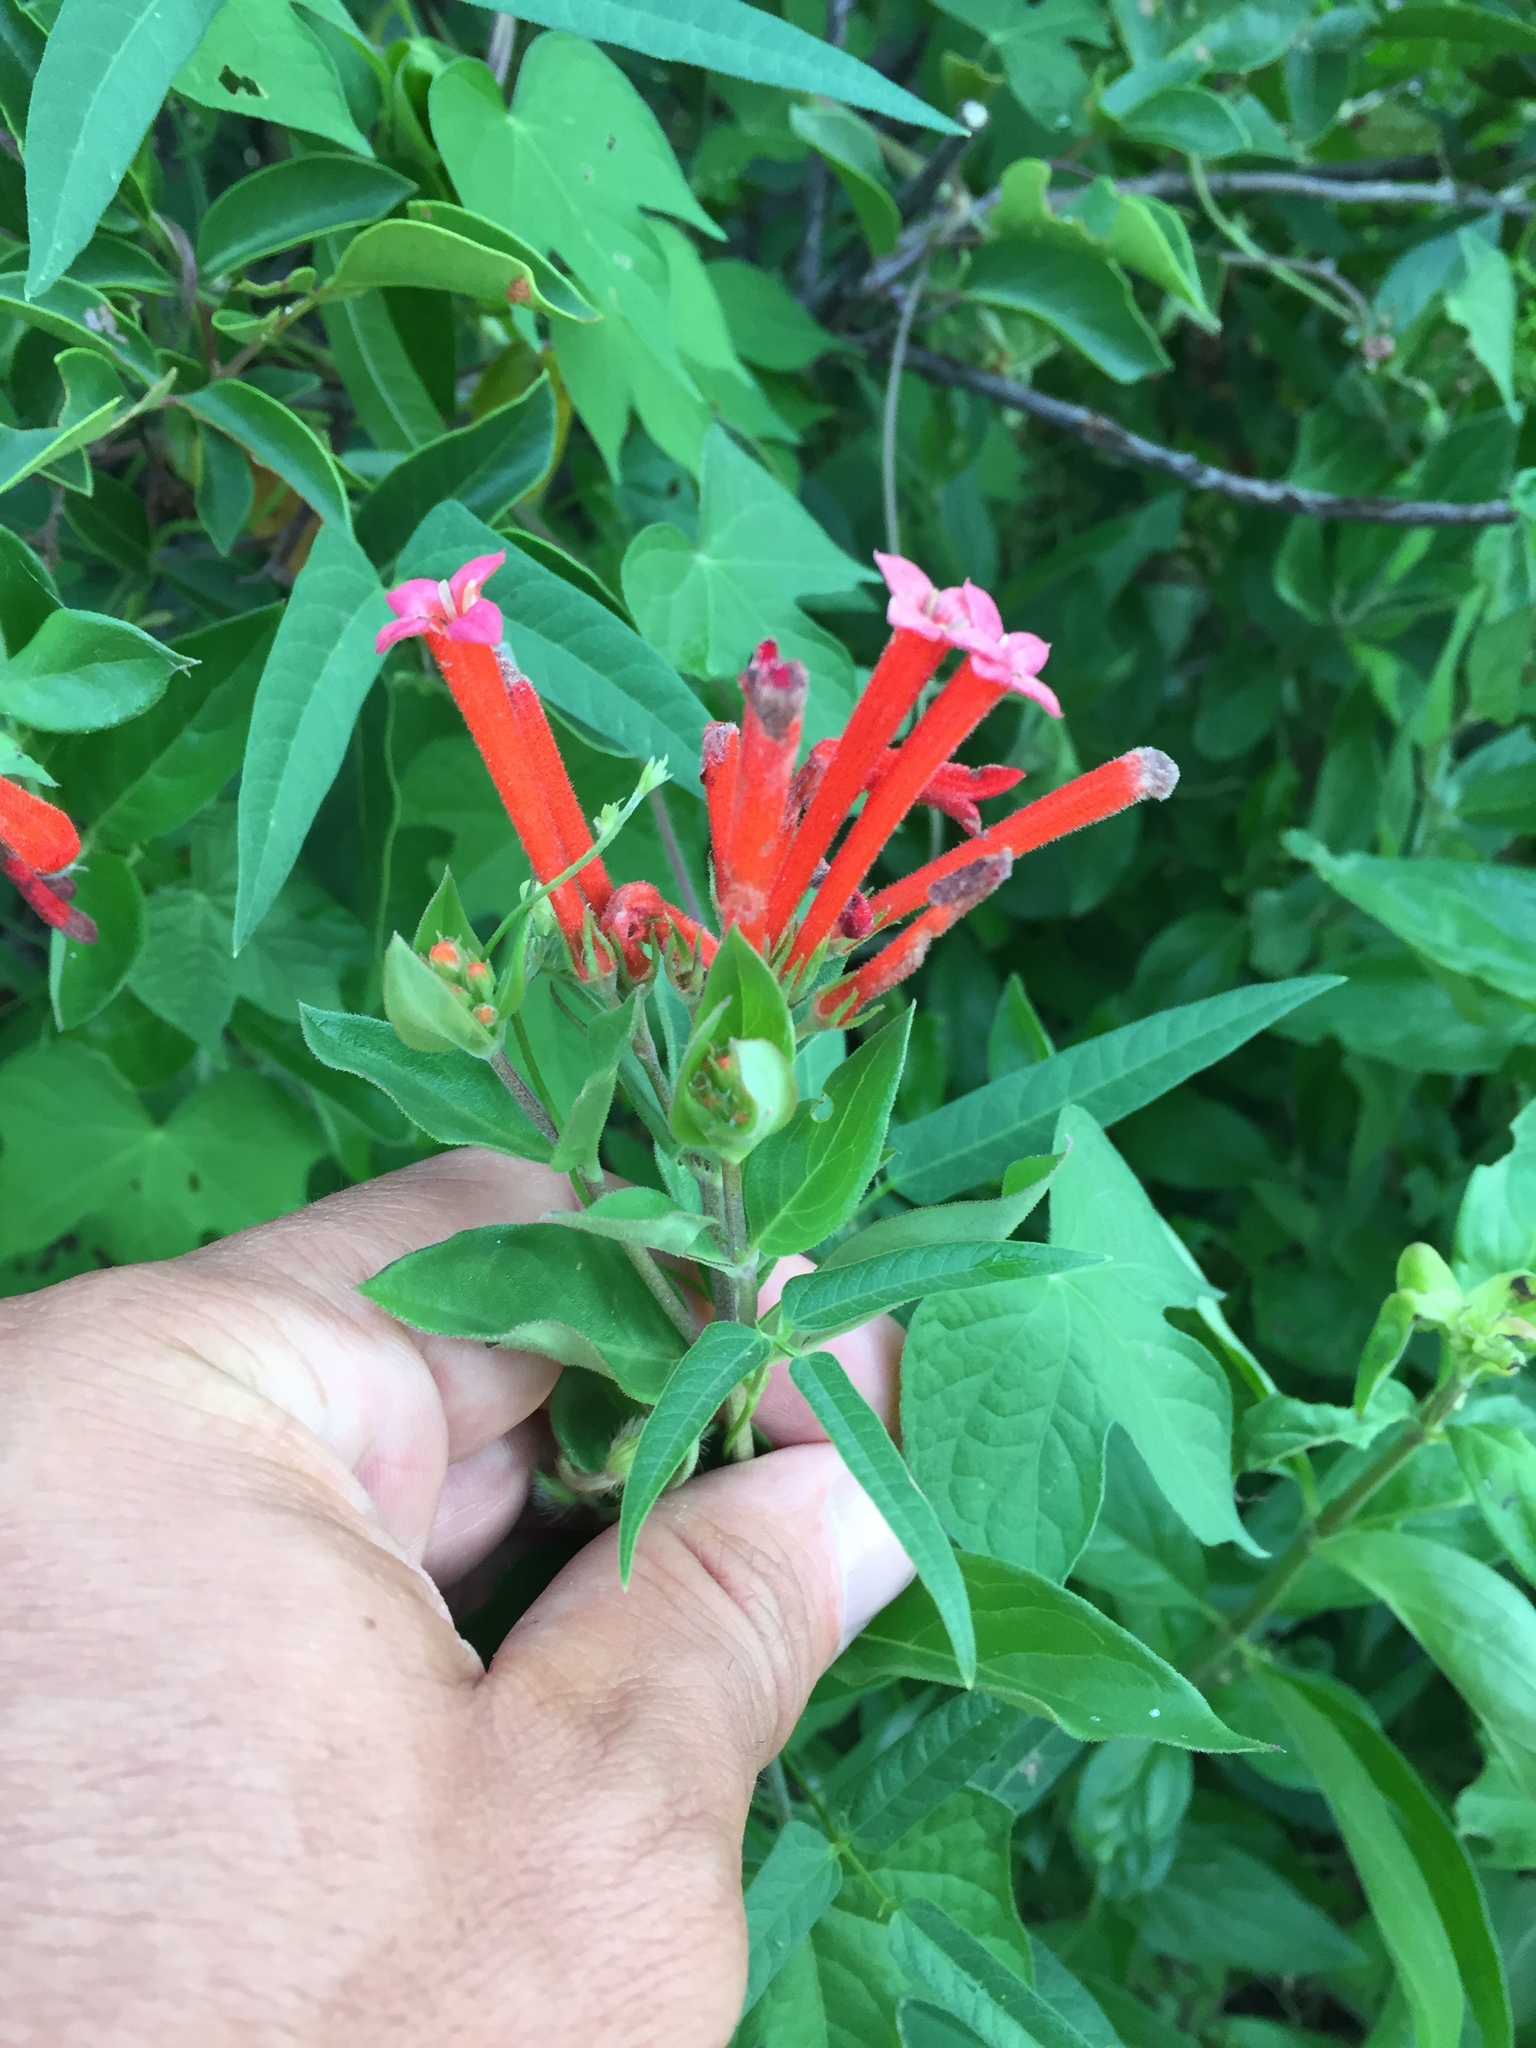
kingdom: Plantae
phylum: Tracheophyta
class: Magnoliopsida
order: Gentianales
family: Rubiaceae
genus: Bouvardia
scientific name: Bouvardia ternifolia
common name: Scarlet bouvardia
